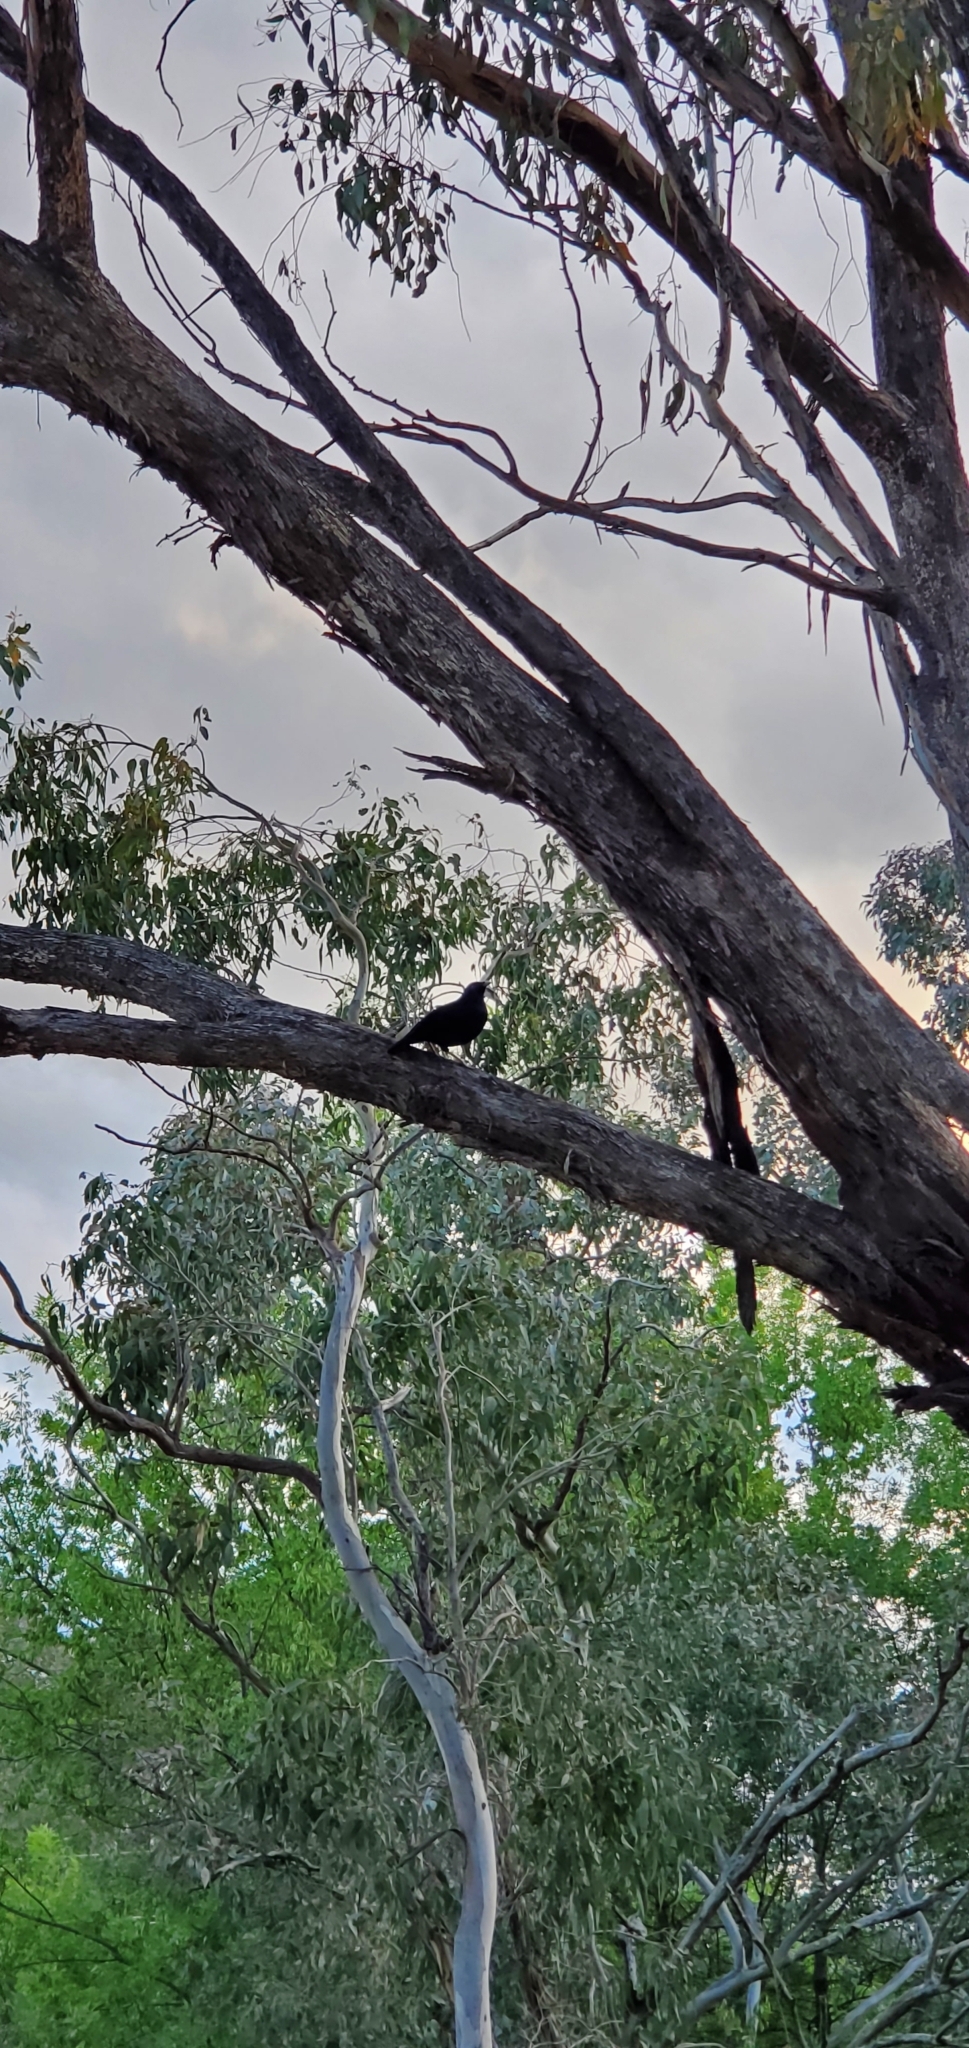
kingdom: Animalia
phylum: Chordata
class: Aves
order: Passeriformes
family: Ptilonorhynchidae
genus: Ptilonorhynchus
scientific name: Ptilonorhynchus violaceus
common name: Satin bowerbird
